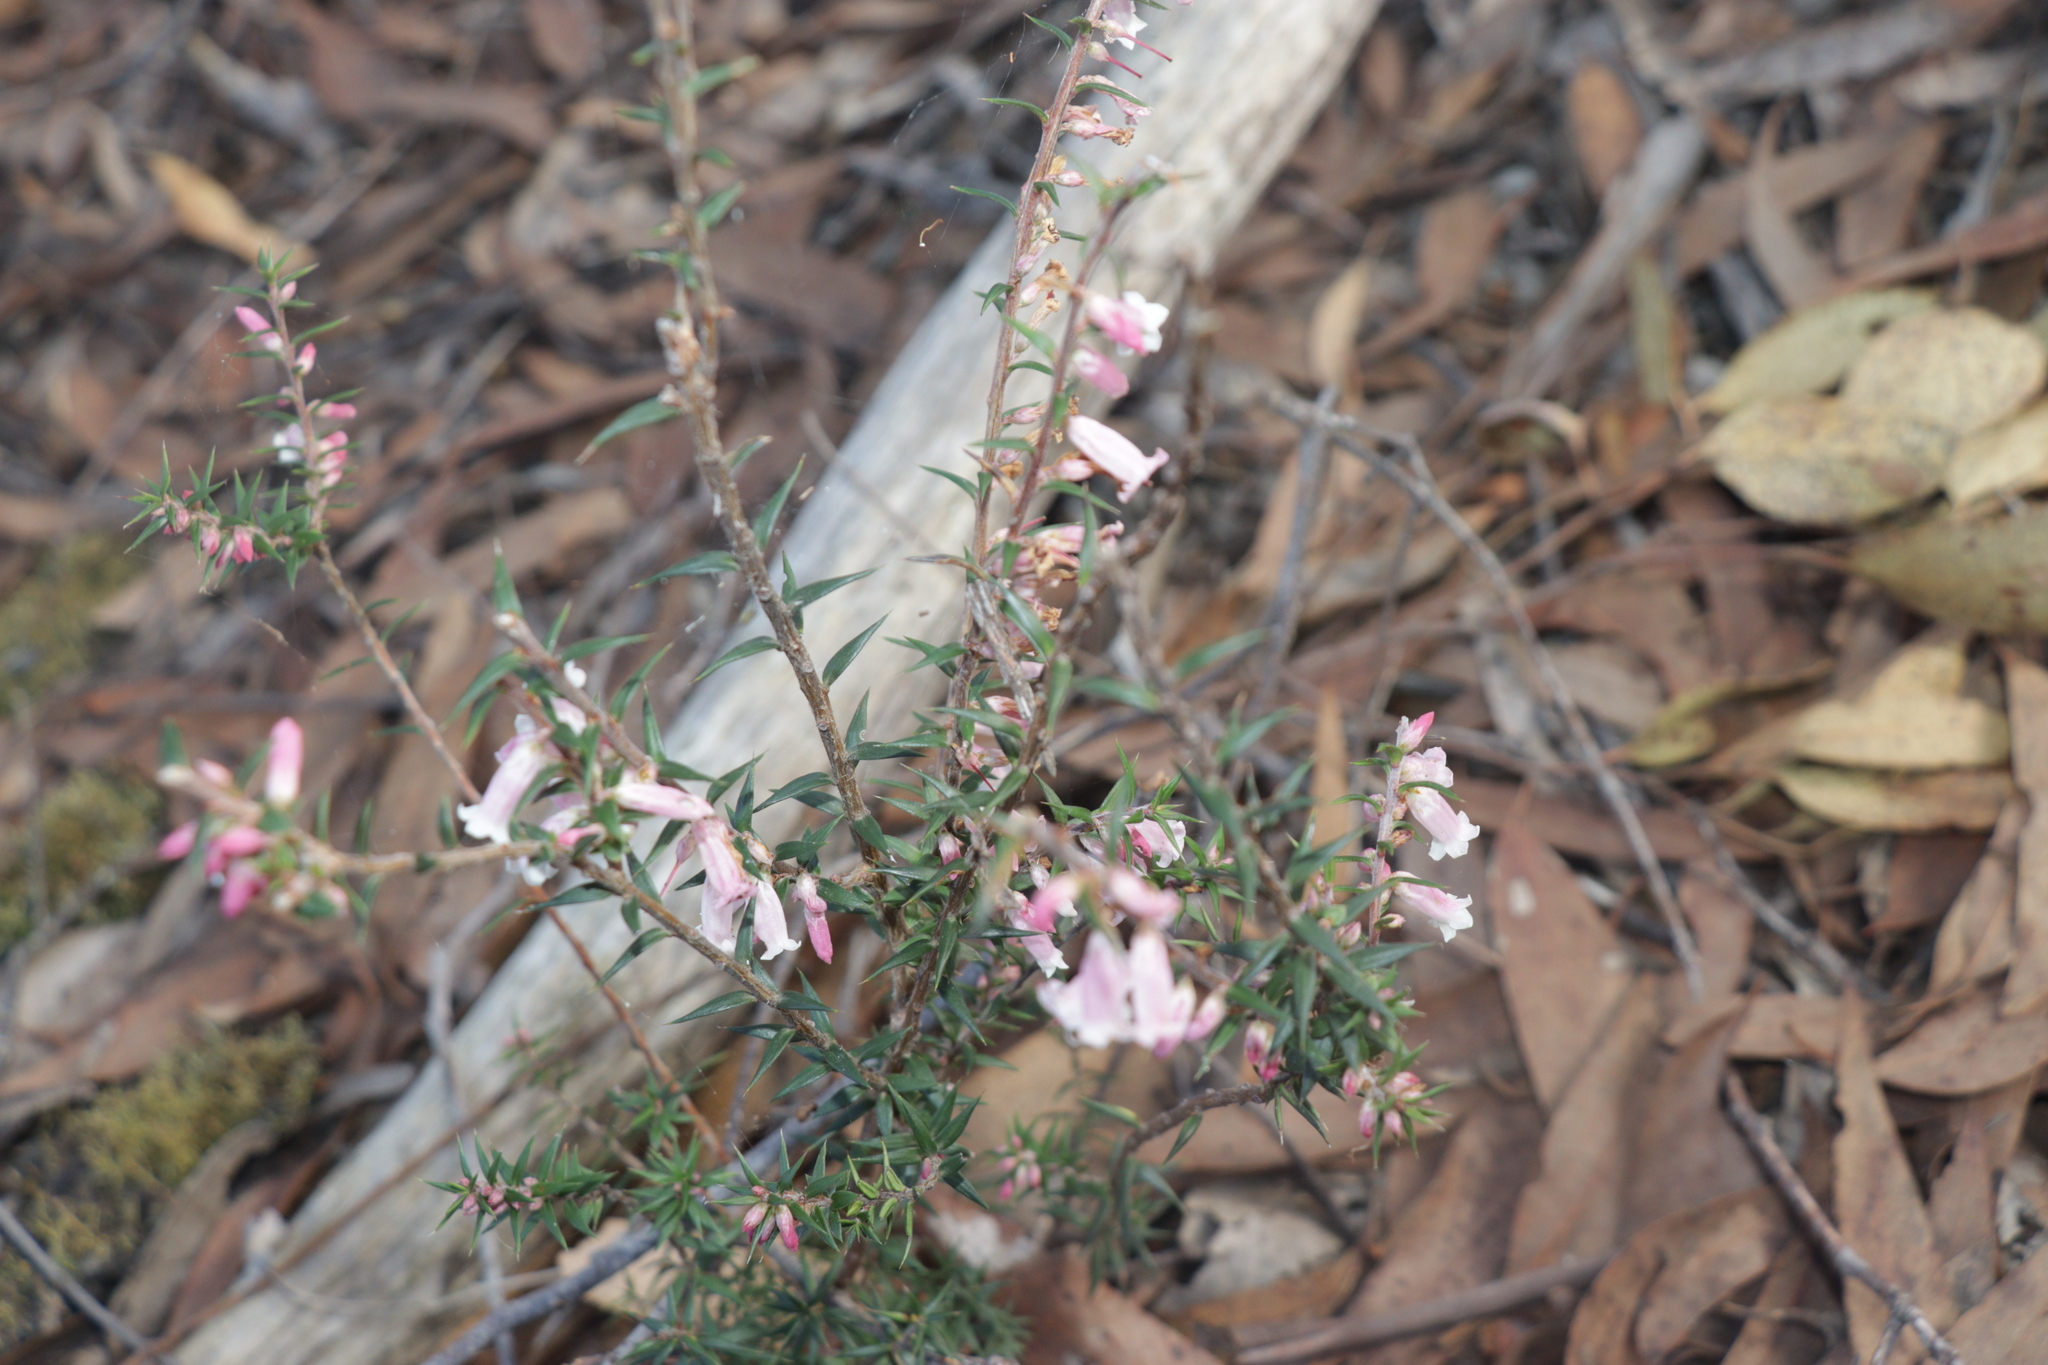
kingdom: Plantae
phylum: Tracheophyta
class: Magnoliopsida
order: Ericales
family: Ericaceae
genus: Epacris
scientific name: Epacris impressa
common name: Common-heath
